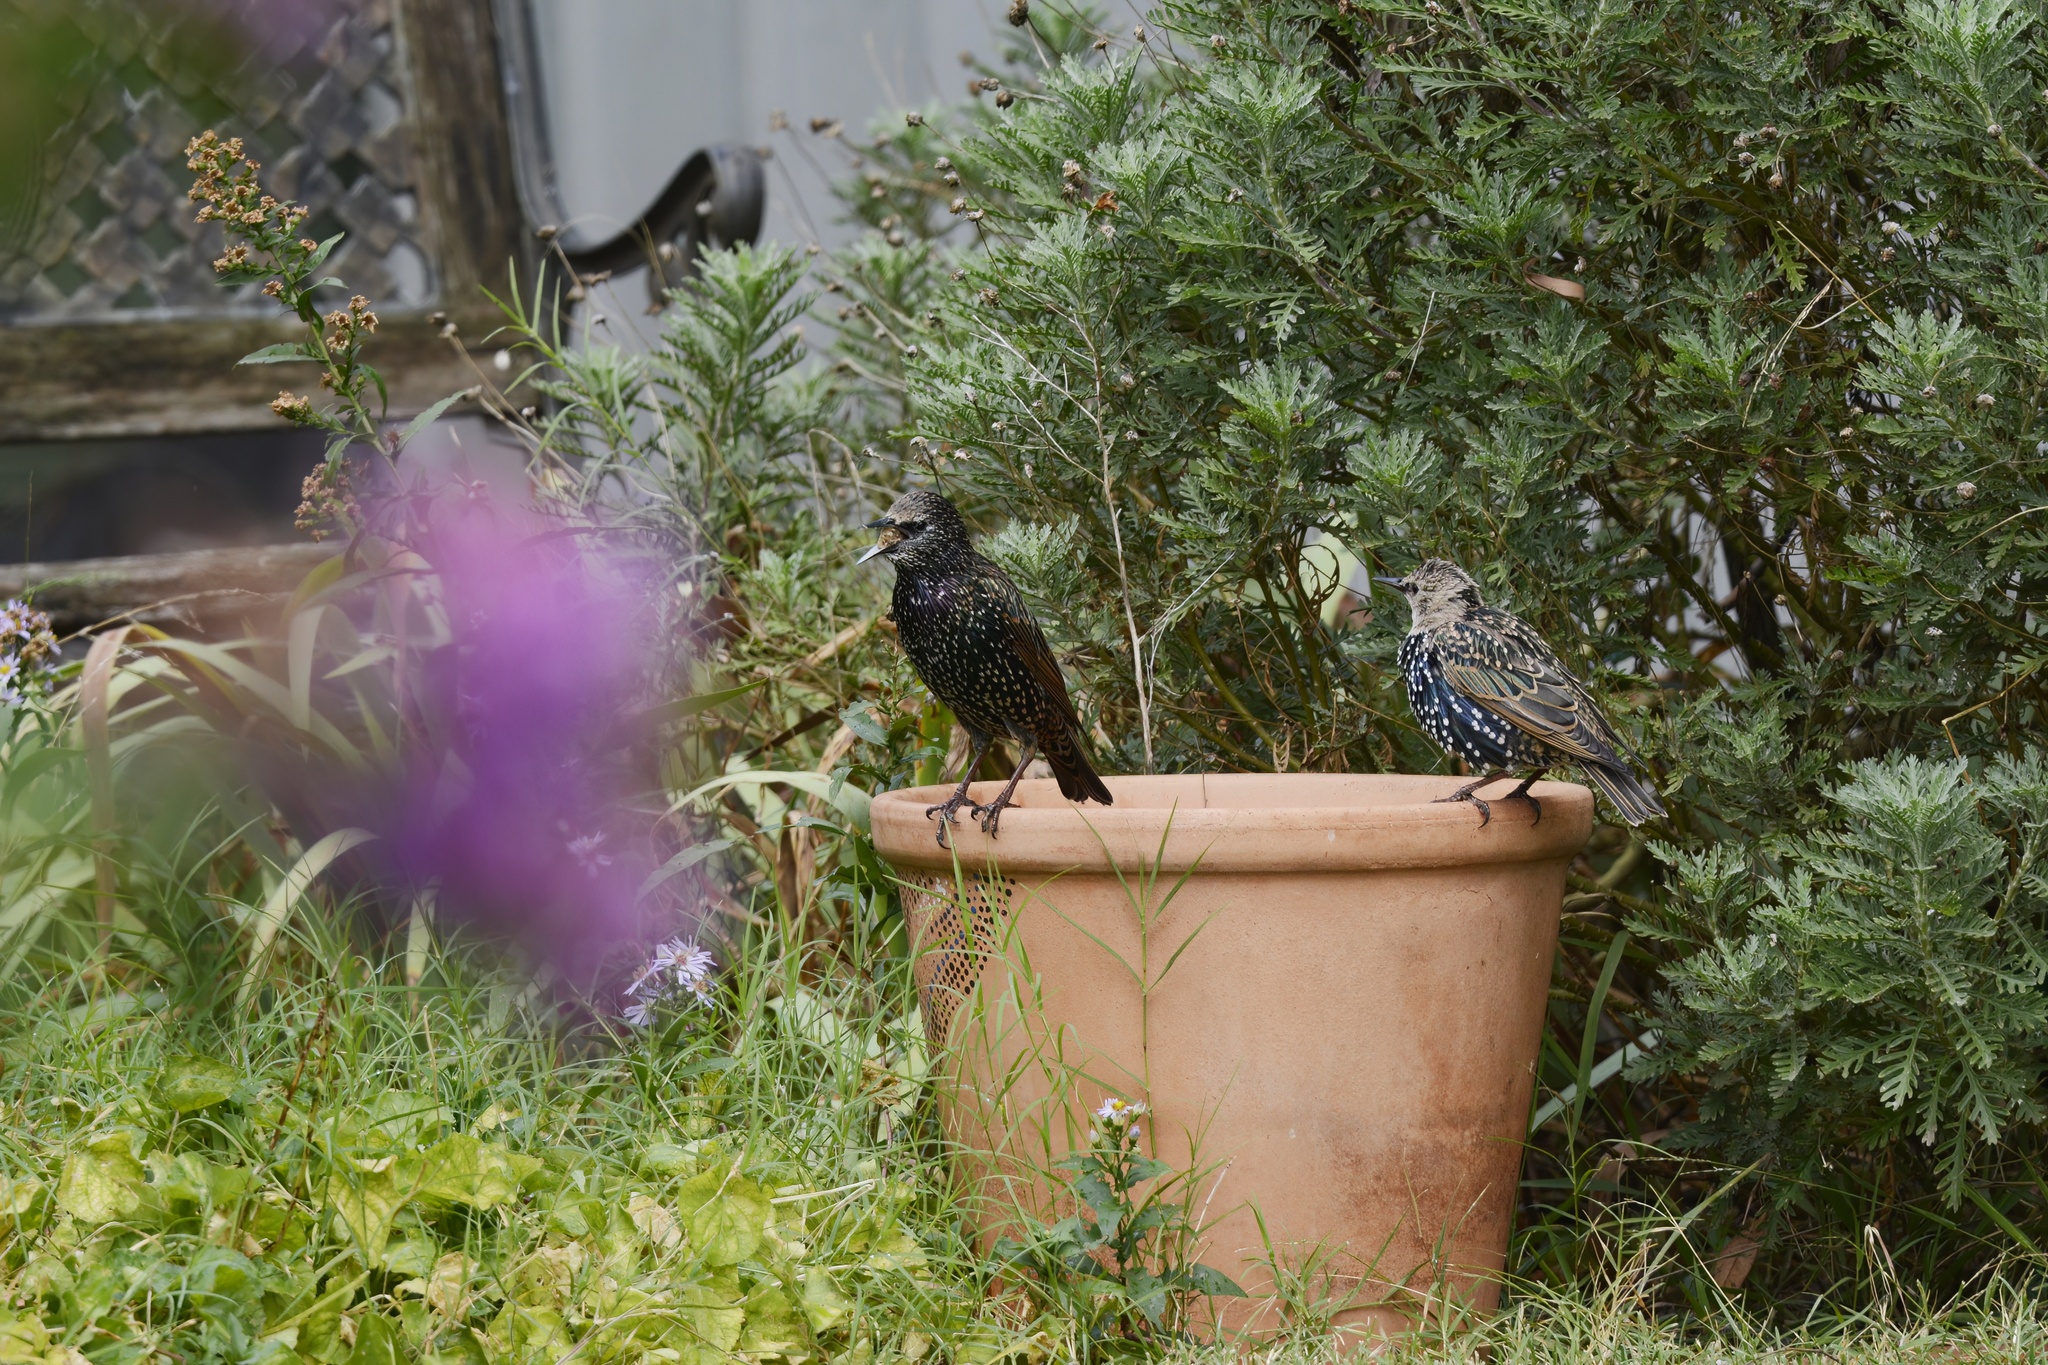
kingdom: Animalia
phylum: Chordata
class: Aves
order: Passeriformes
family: Sturnidae
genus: Sturnus
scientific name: Sturnus vulgaris
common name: Common starling
